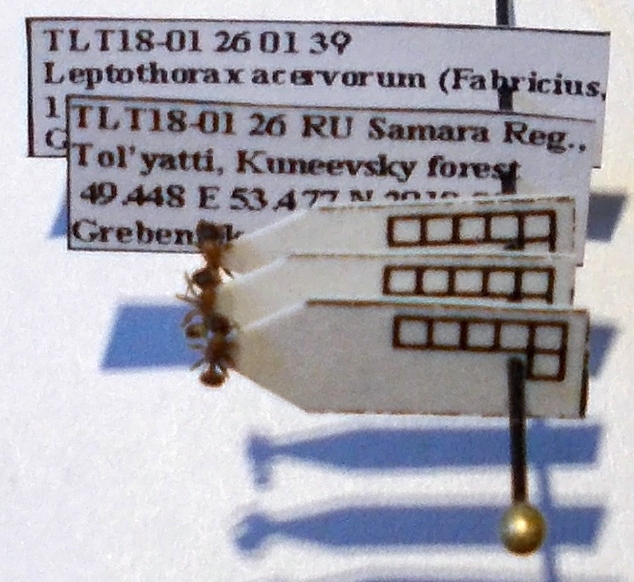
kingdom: Animalia
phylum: Arthropoda
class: Insecta
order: Hymenoptera
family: Formicidae
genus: Leptothorax
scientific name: Leptothorax acervorum
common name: Slender ant
